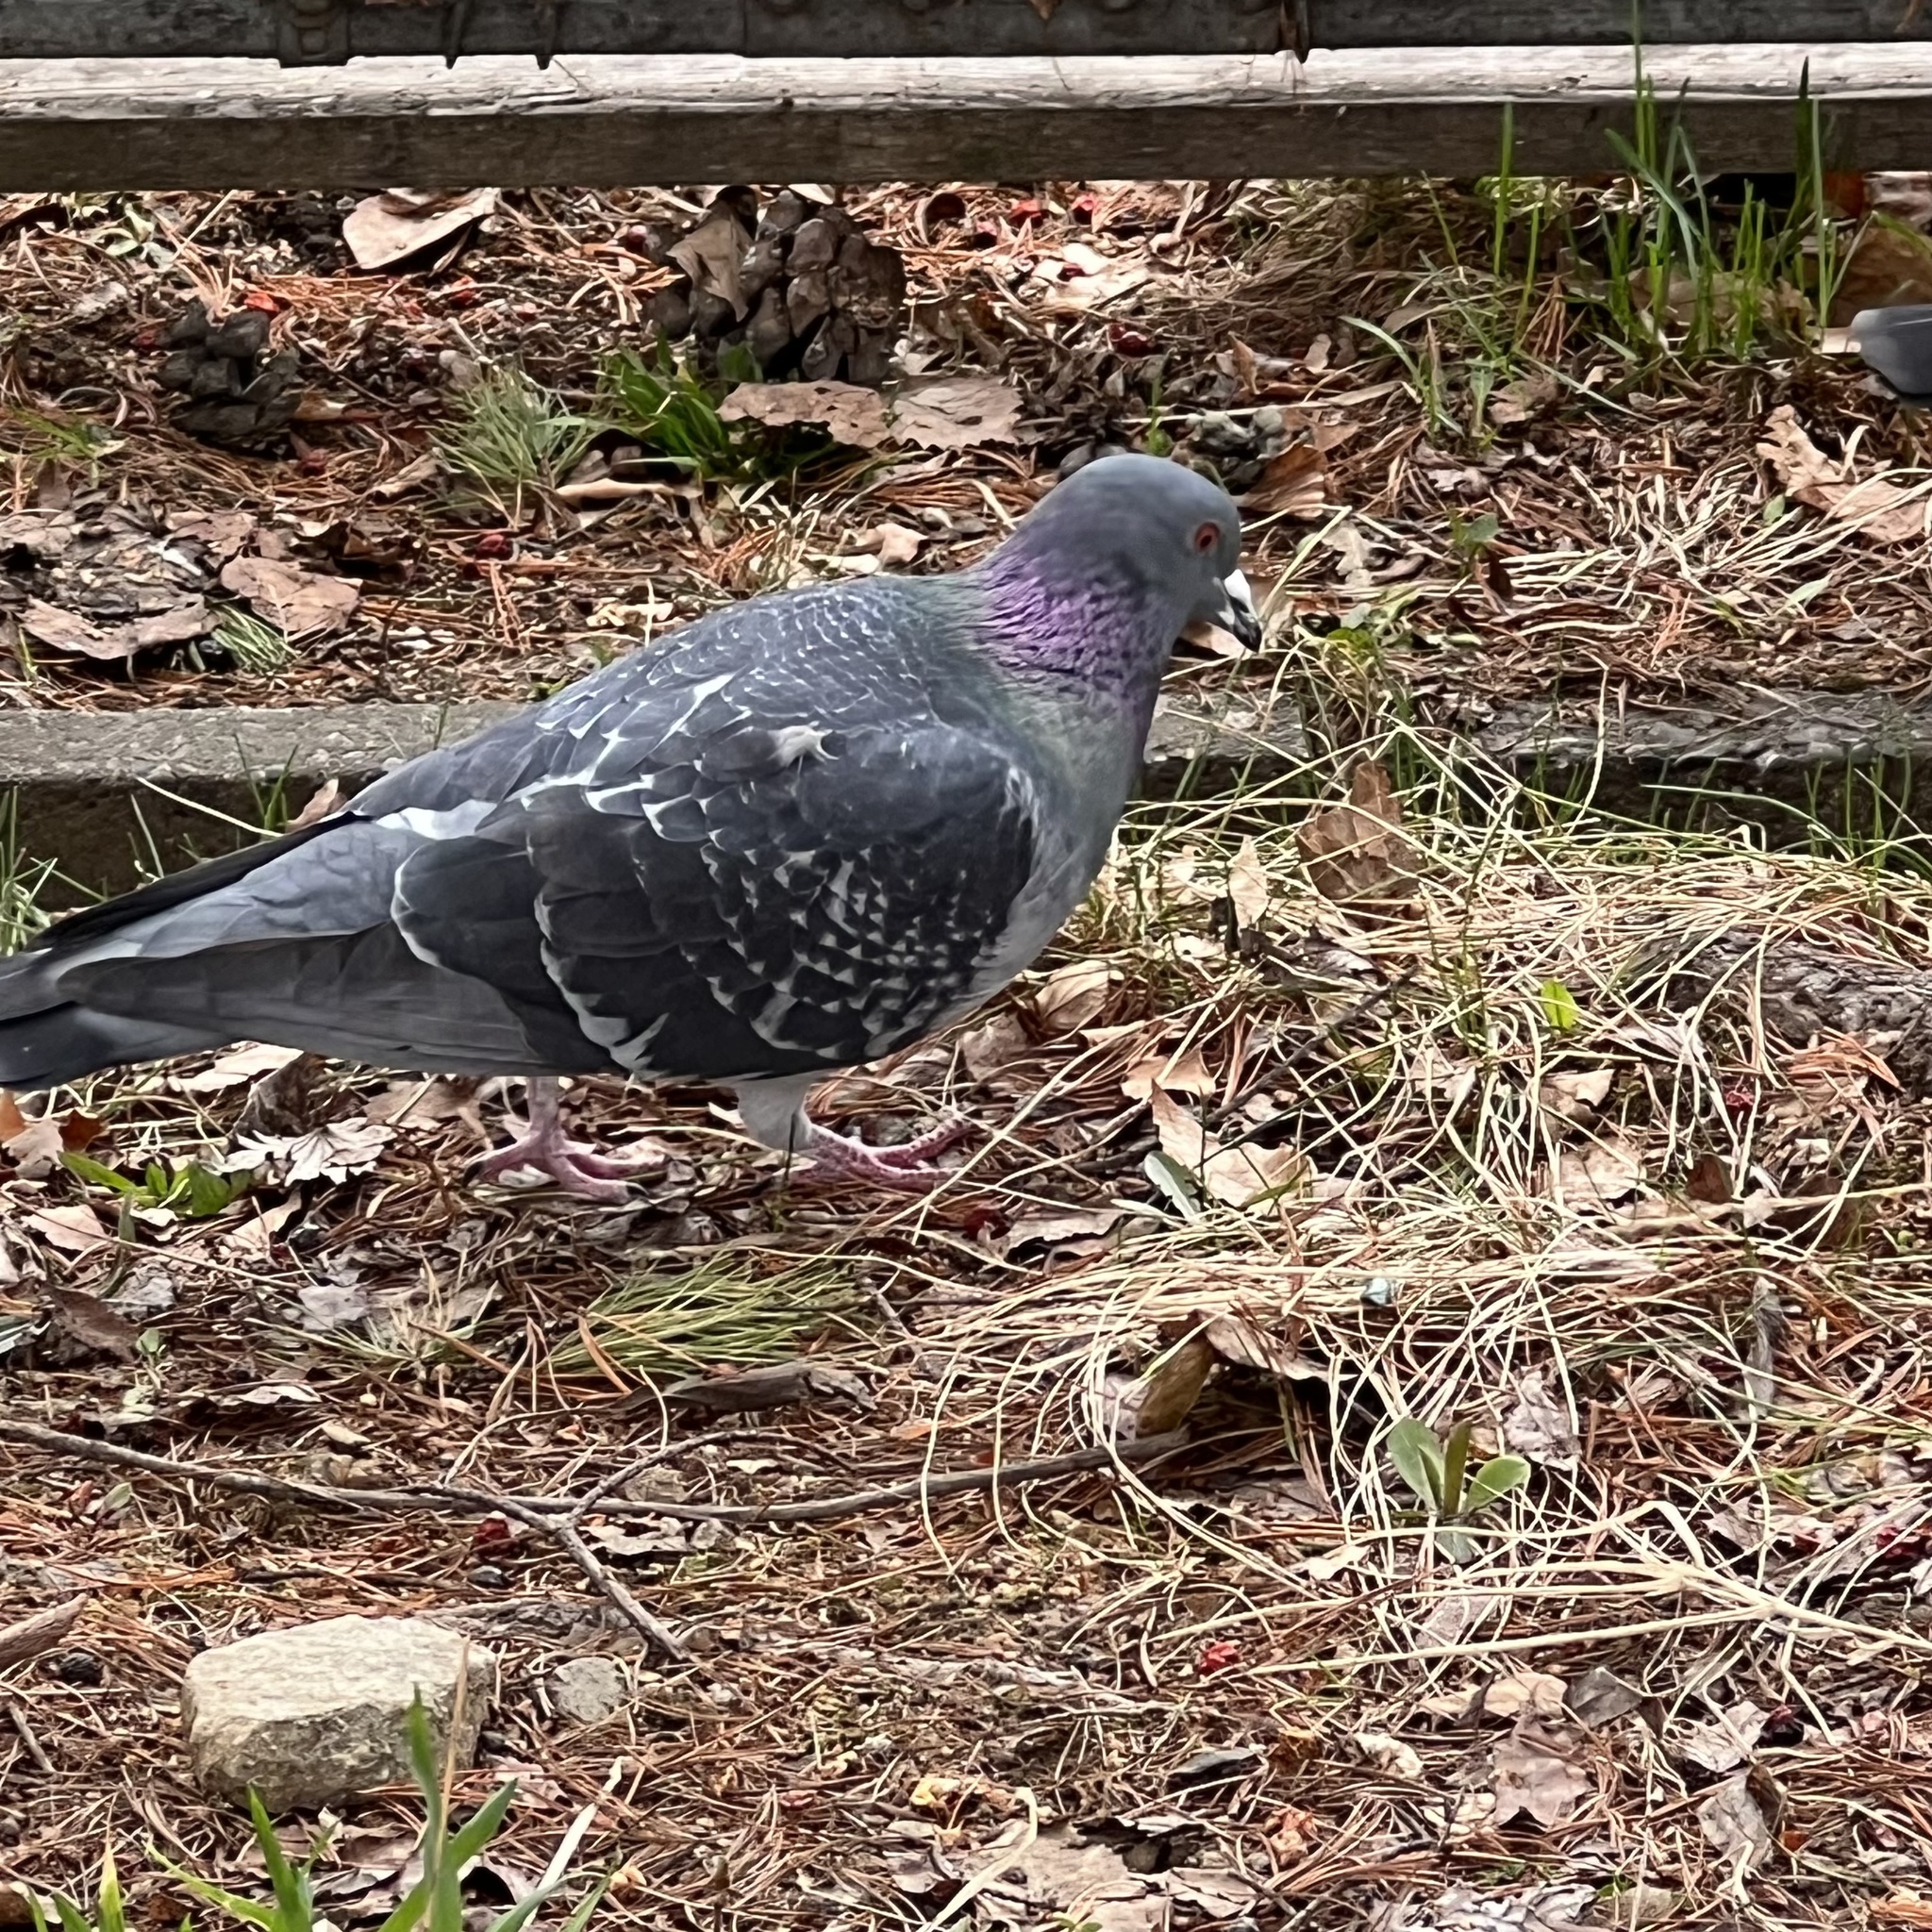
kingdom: Animalia
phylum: Chordata
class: Aves
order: Columbiformes
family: Columbidae
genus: Columba
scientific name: Columba livia
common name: Rock pigeon
